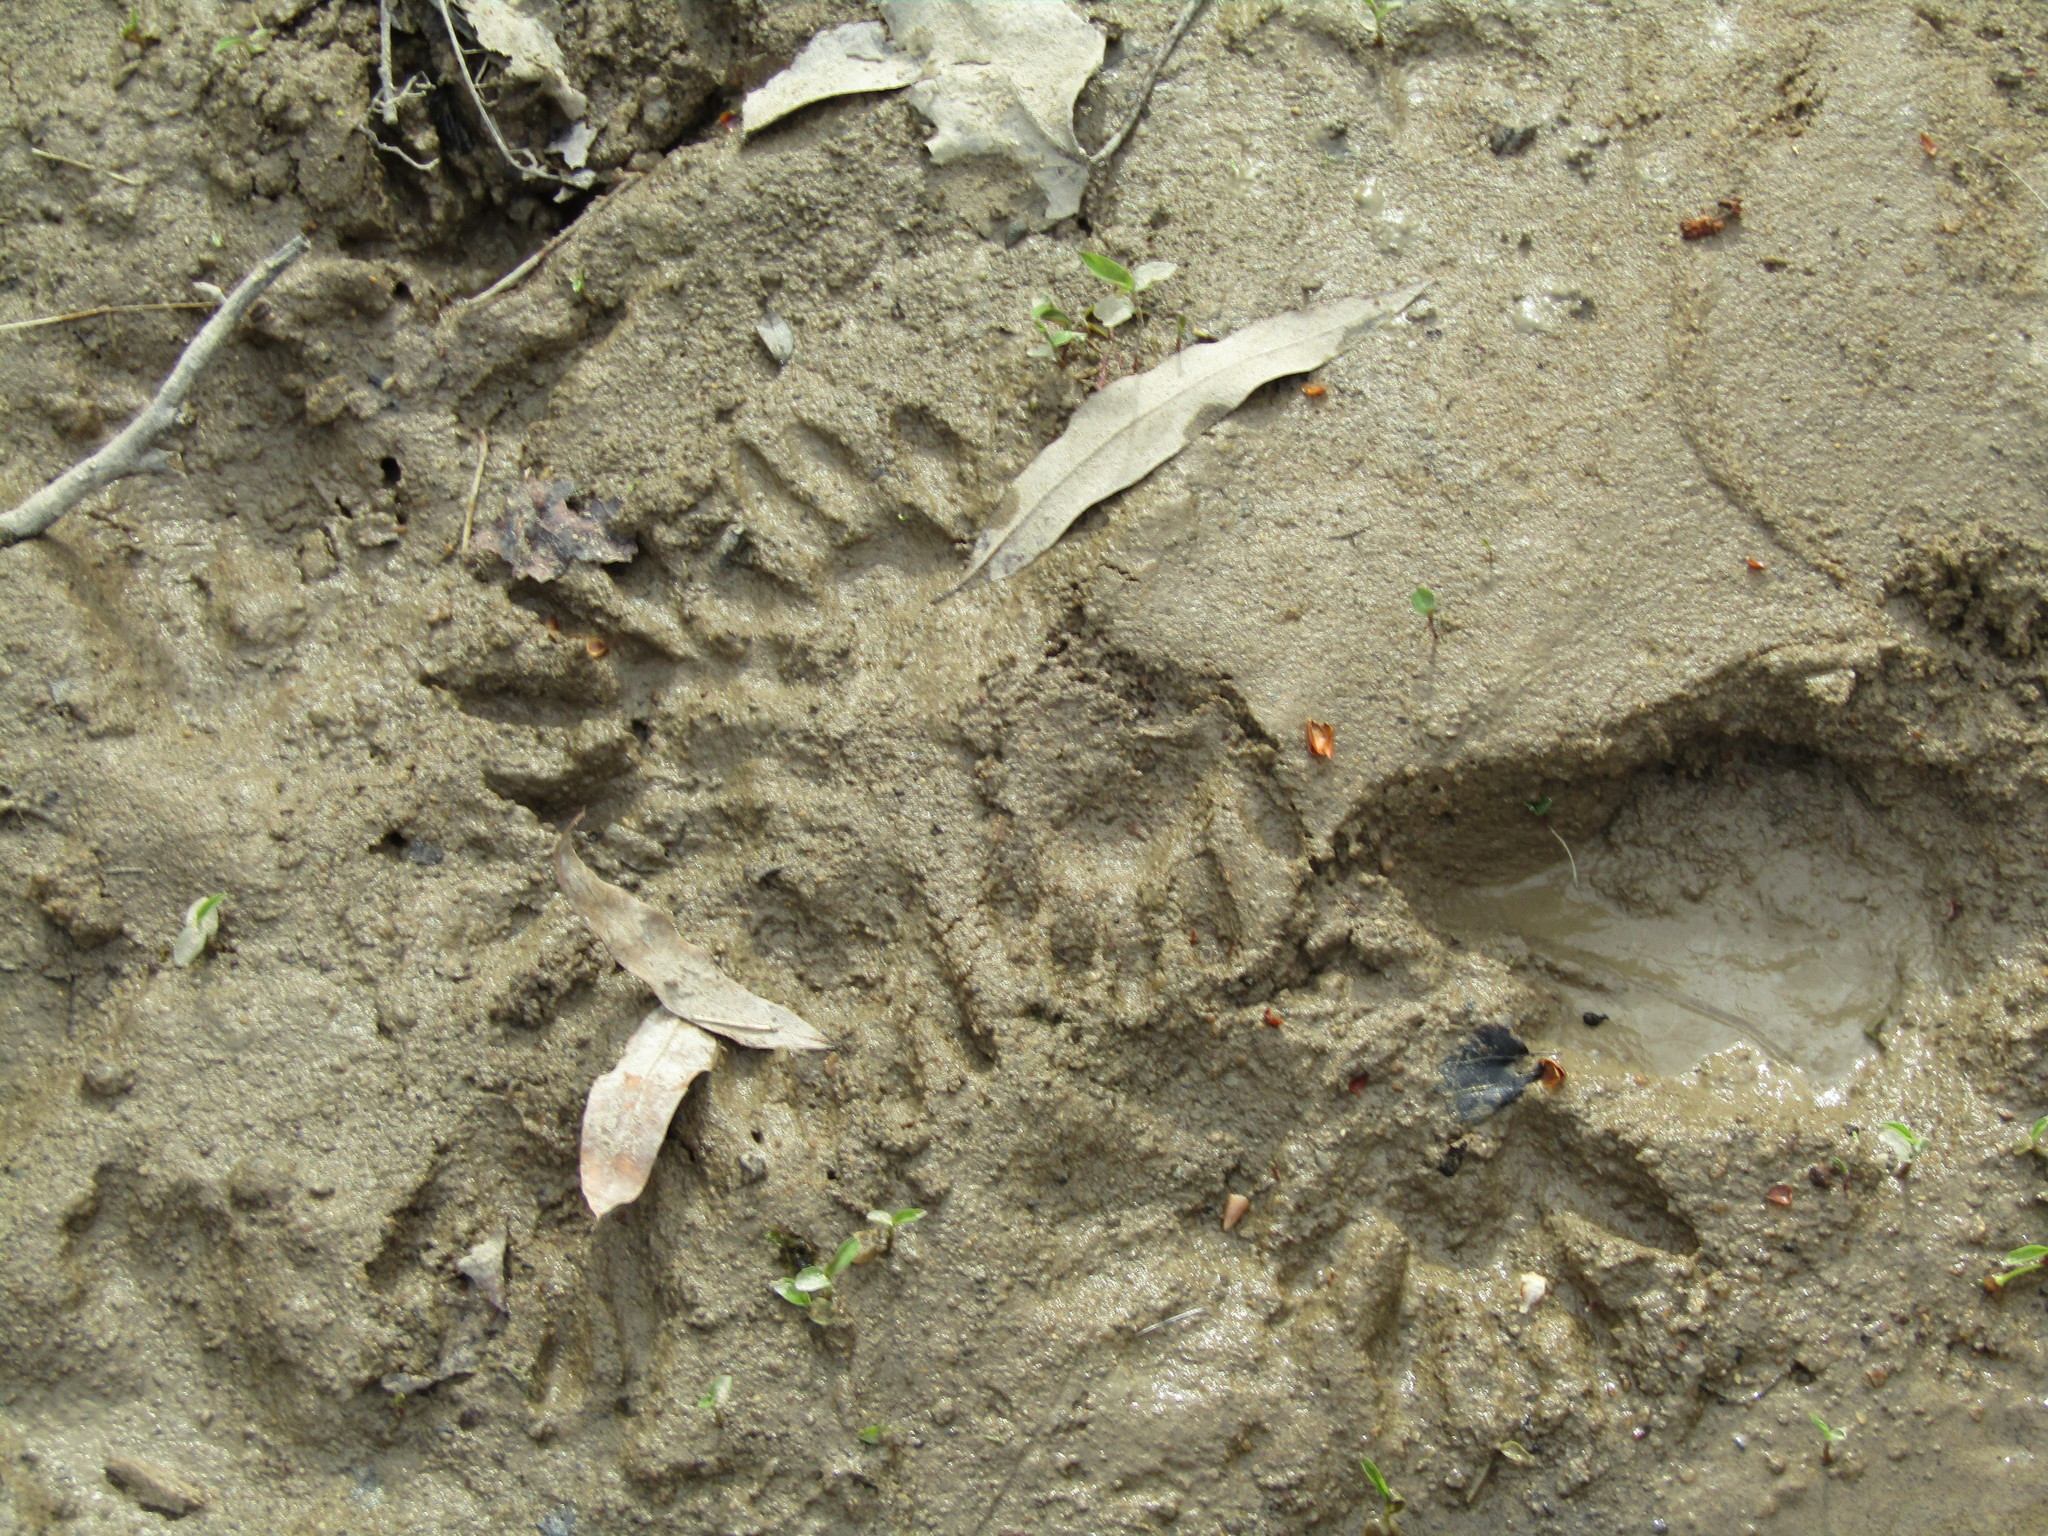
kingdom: Animalia
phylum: Chordata
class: Mammalia
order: Carnivora
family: Procyonidae
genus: Procyon
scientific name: Procyon lotor
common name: Raccoon
